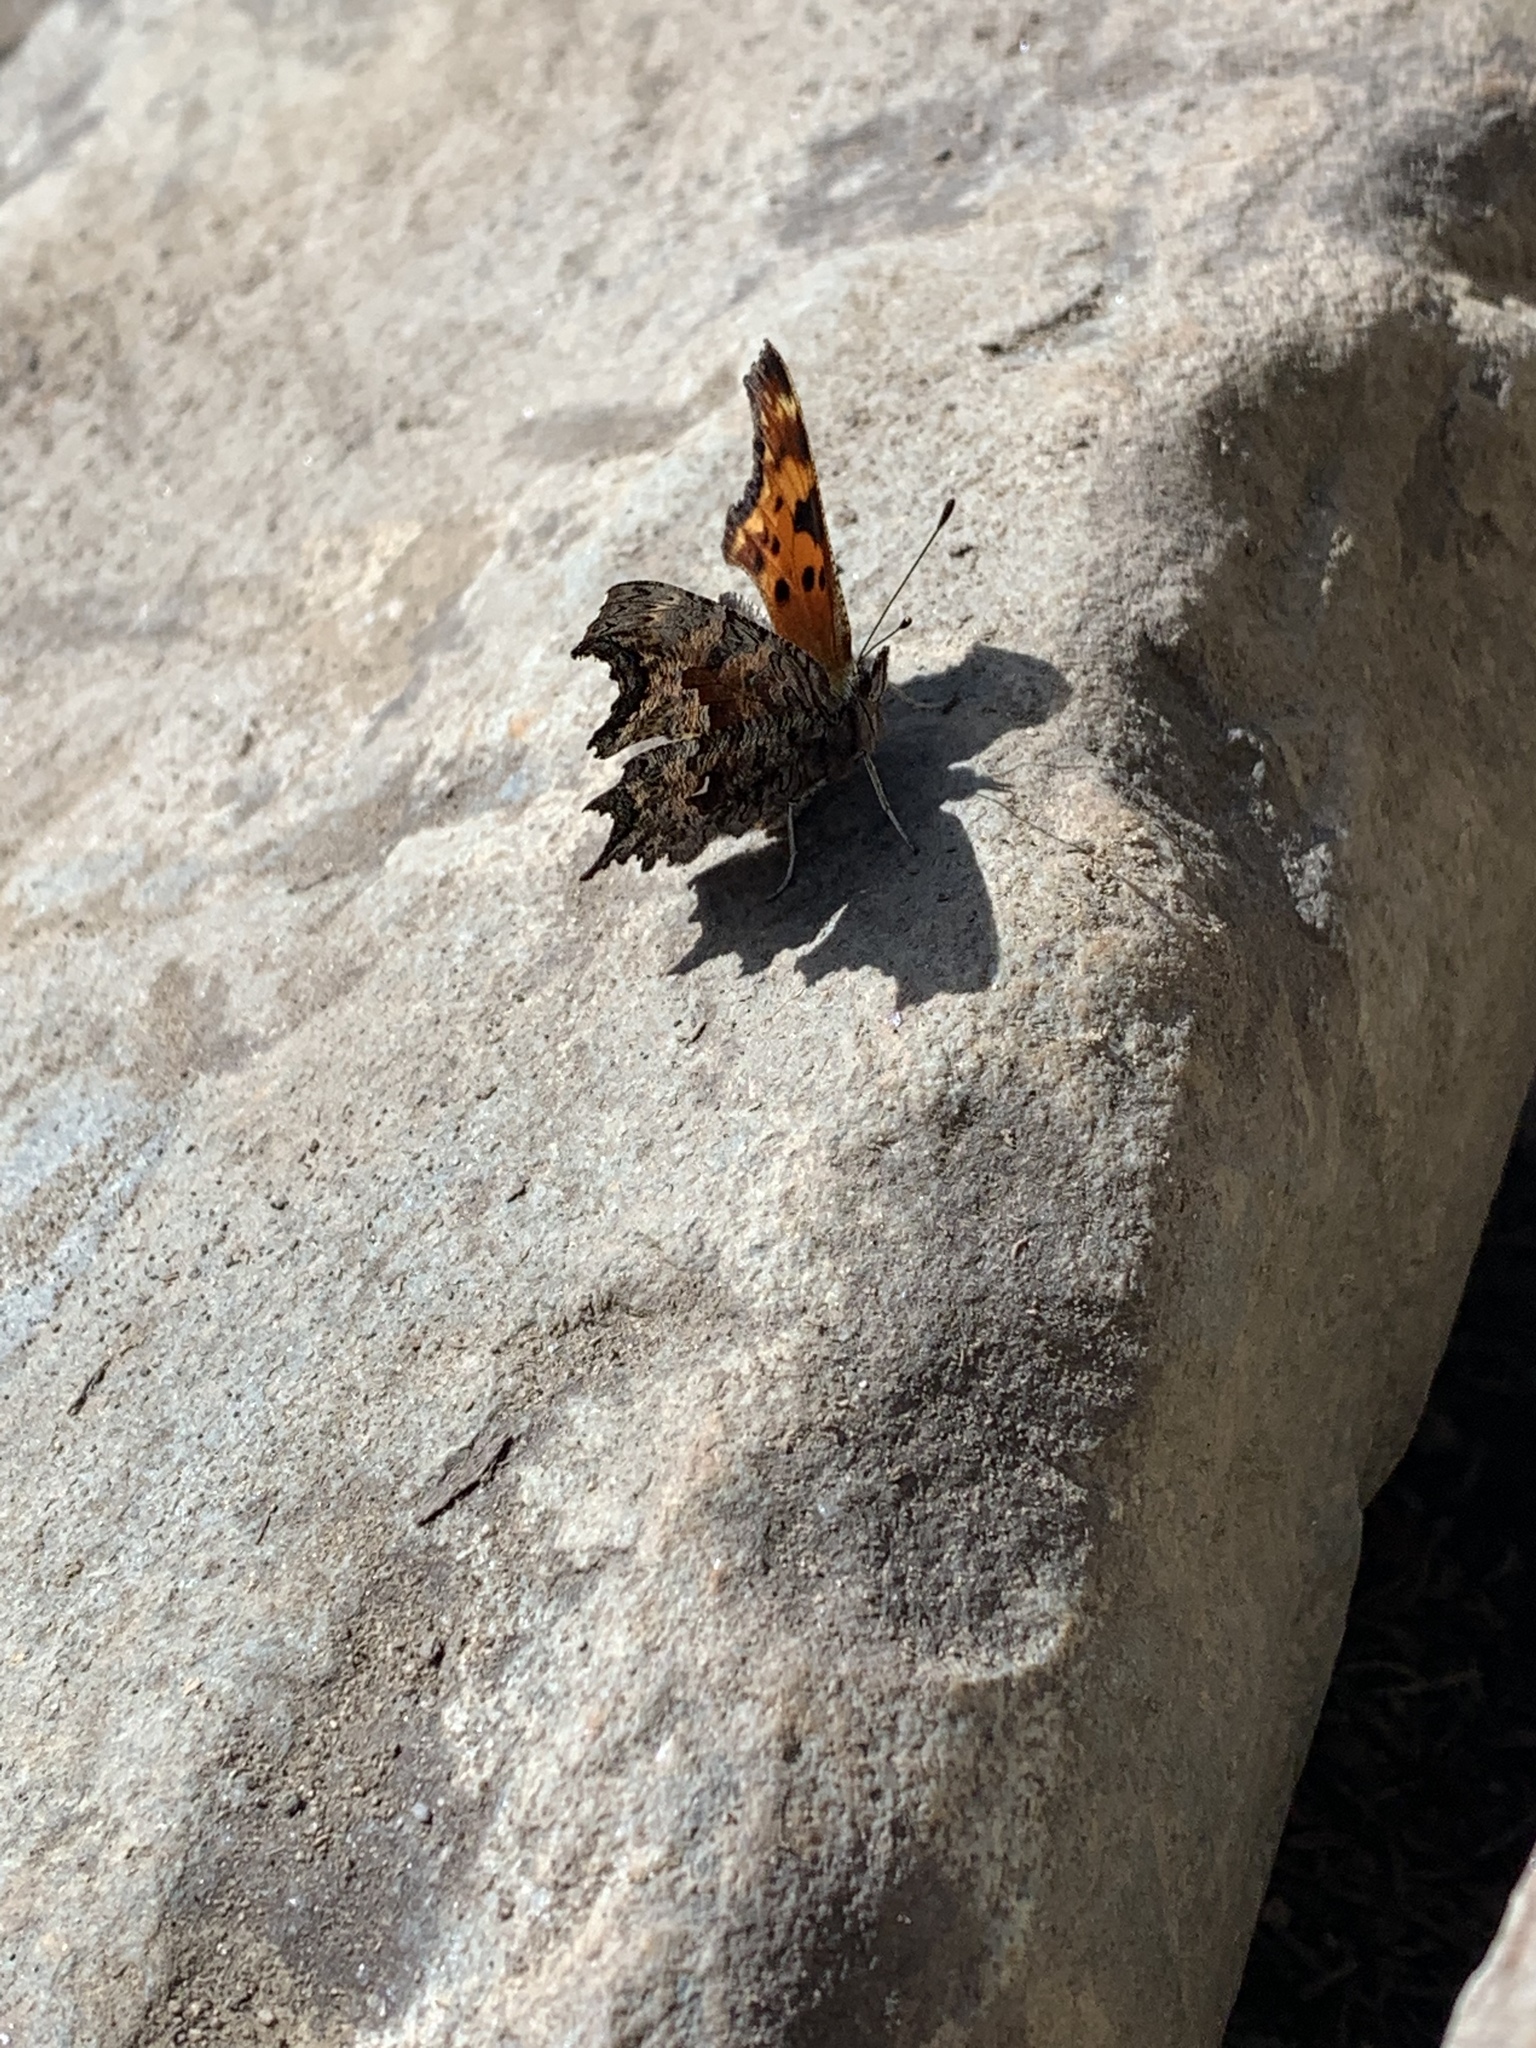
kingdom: Animalia
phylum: Arthropoda
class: Insecta
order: Lepidoptera
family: Nymphalidae
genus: Polygonia
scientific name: Polygonia gracilis
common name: Hoary comma
